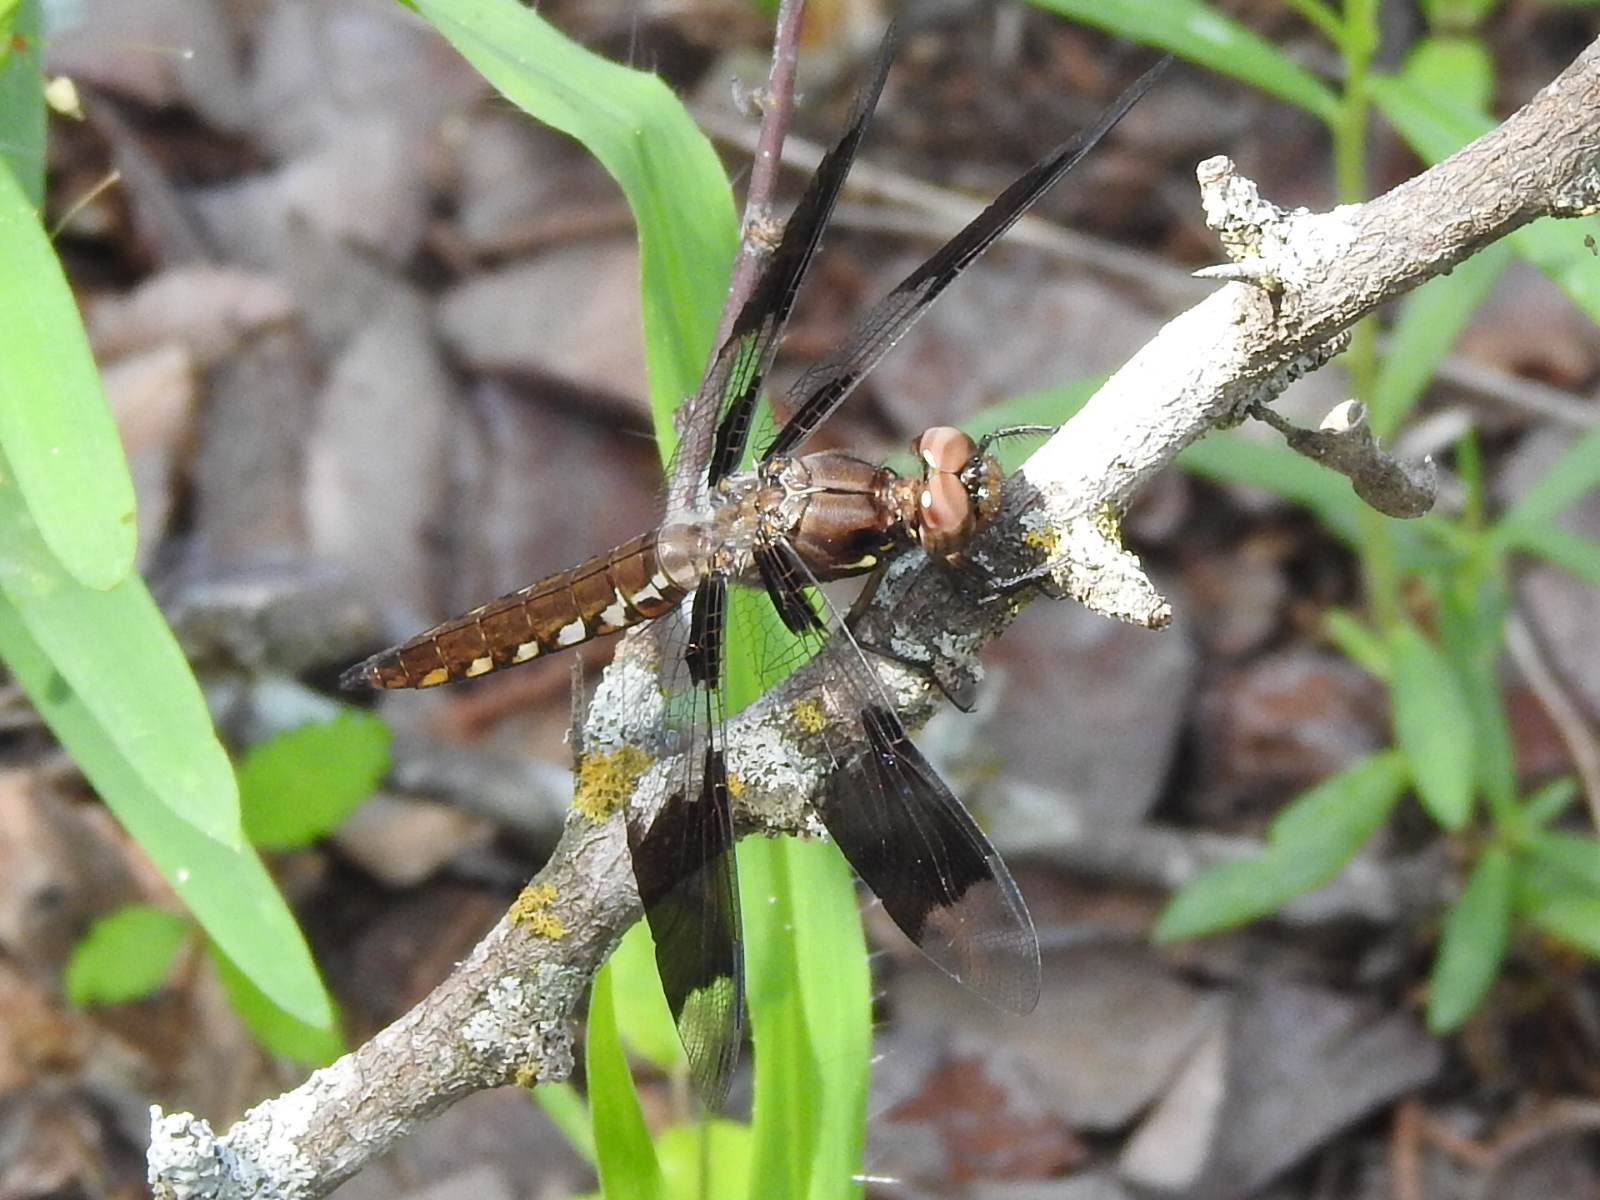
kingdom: Animalia
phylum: Arthropoda
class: Insecta
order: Odonata
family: Libellulidae
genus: Plathemis
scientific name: Plathemis lydia
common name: Common whitetail
